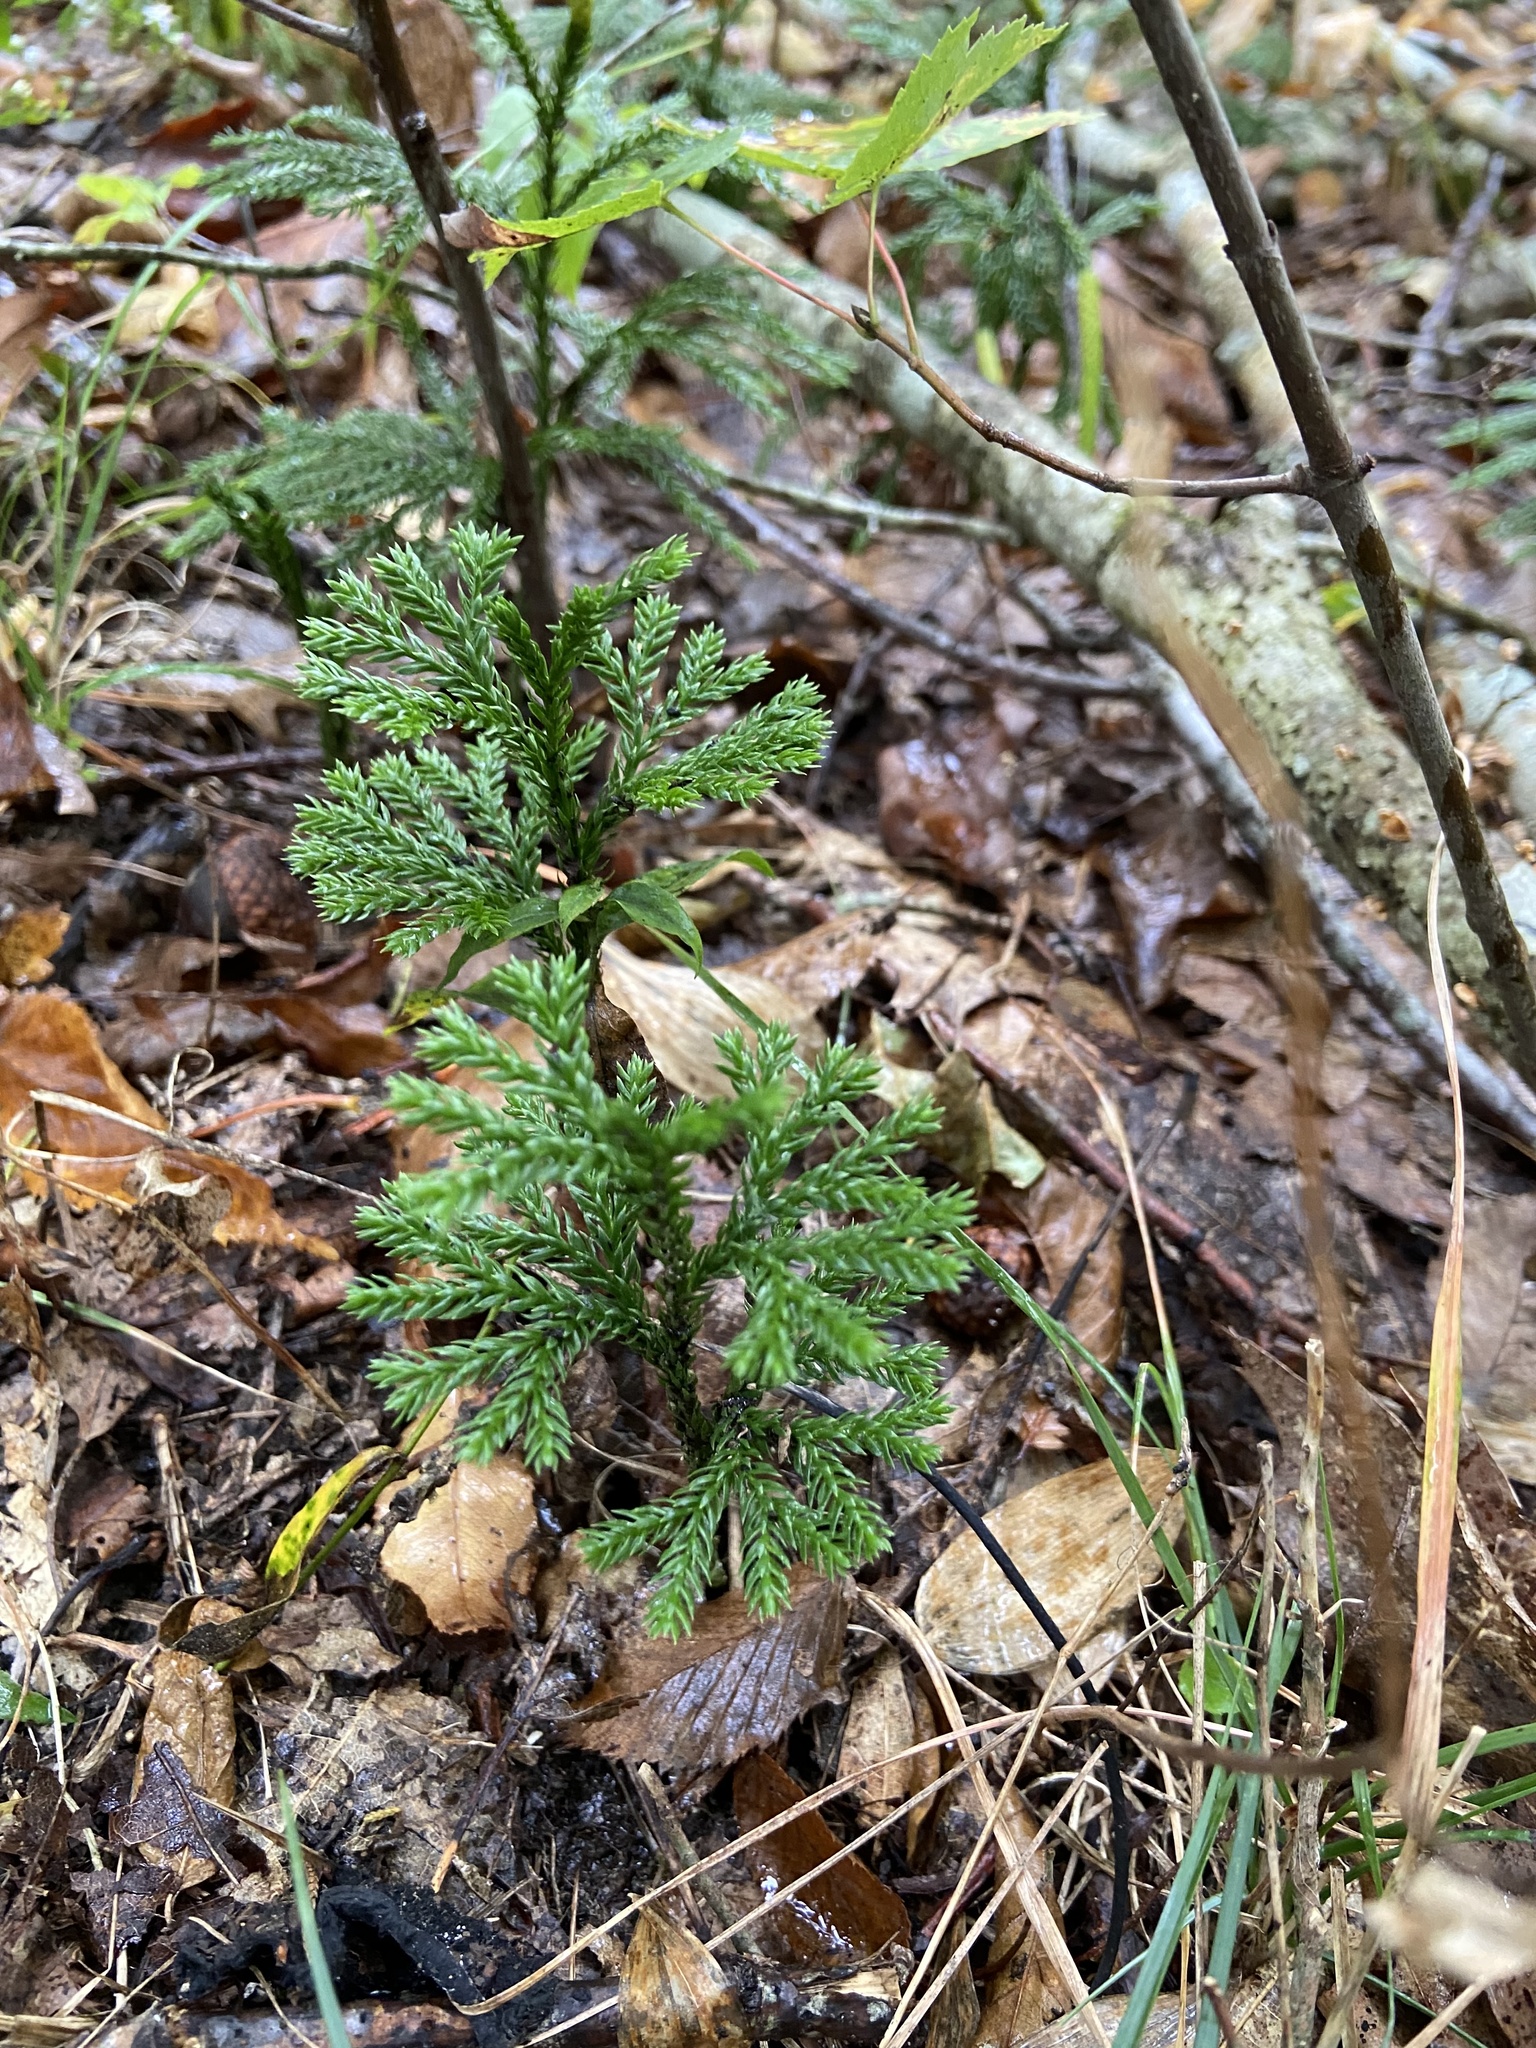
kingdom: Plantae
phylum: Tracheophyta
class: Lycopodiopsida
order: Lycopodiales
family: Lycopodiaceae
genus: Dendrolycopodium
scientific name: Dendrolycopodium obscurum
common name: Common ground-pine
